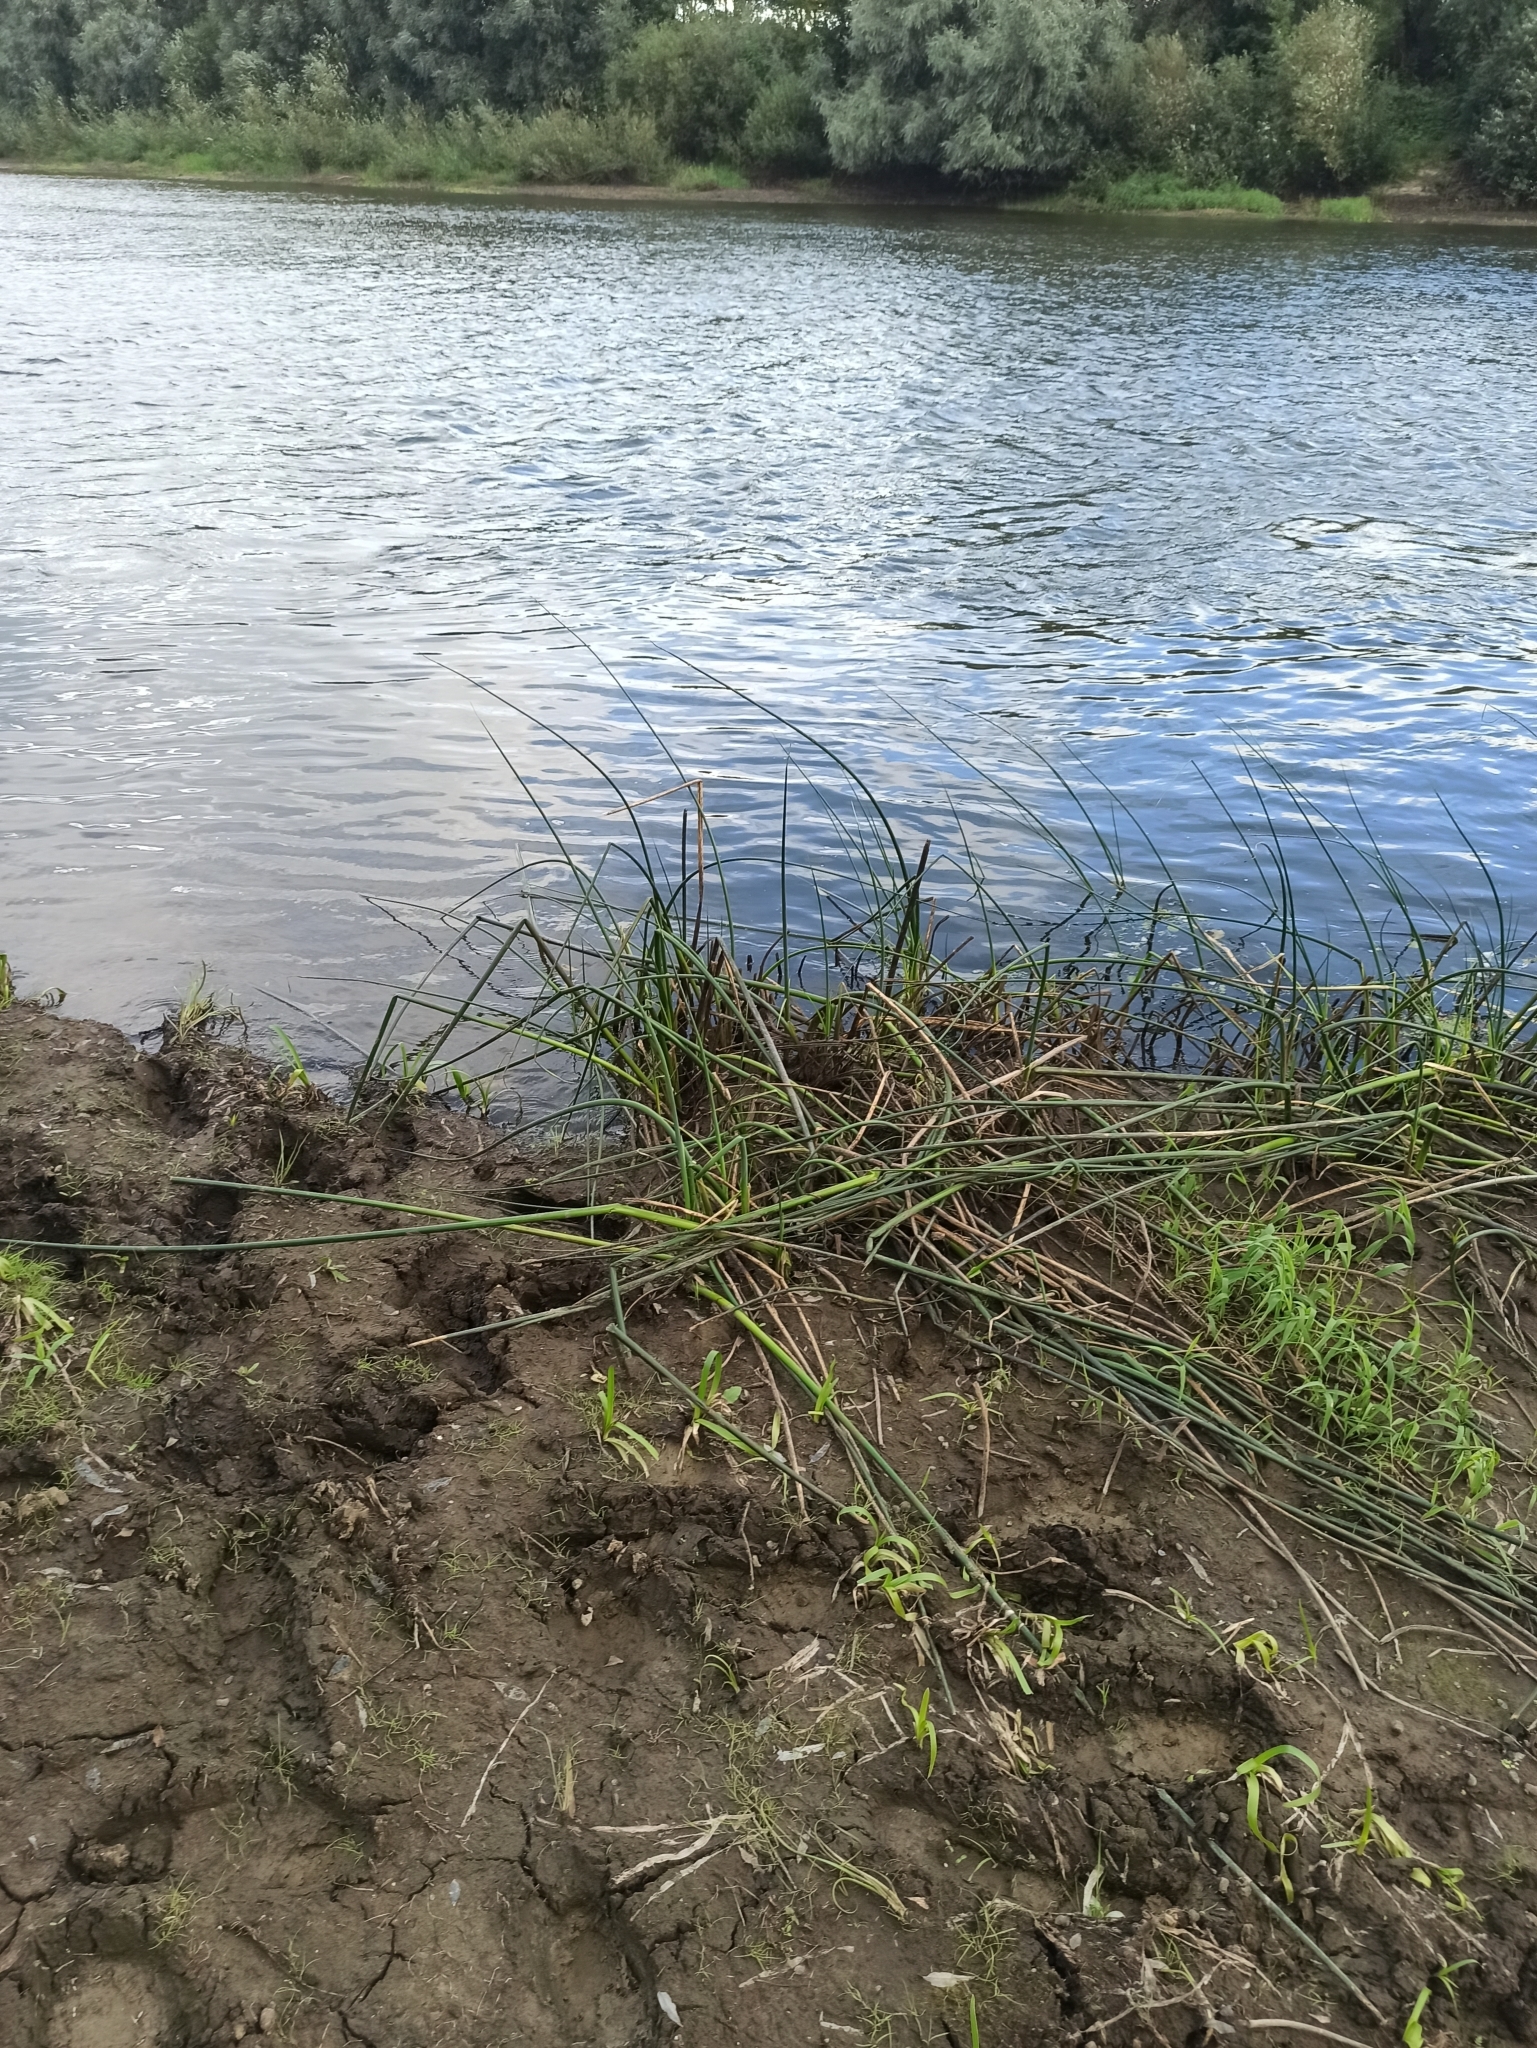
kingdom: Plantae
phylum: Tracheophyta
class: Liliopsida
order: Poales
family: Cyperaceae
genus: Schoenoplectus
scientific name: Schoenoplectus lacustris
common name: Common club-rush
